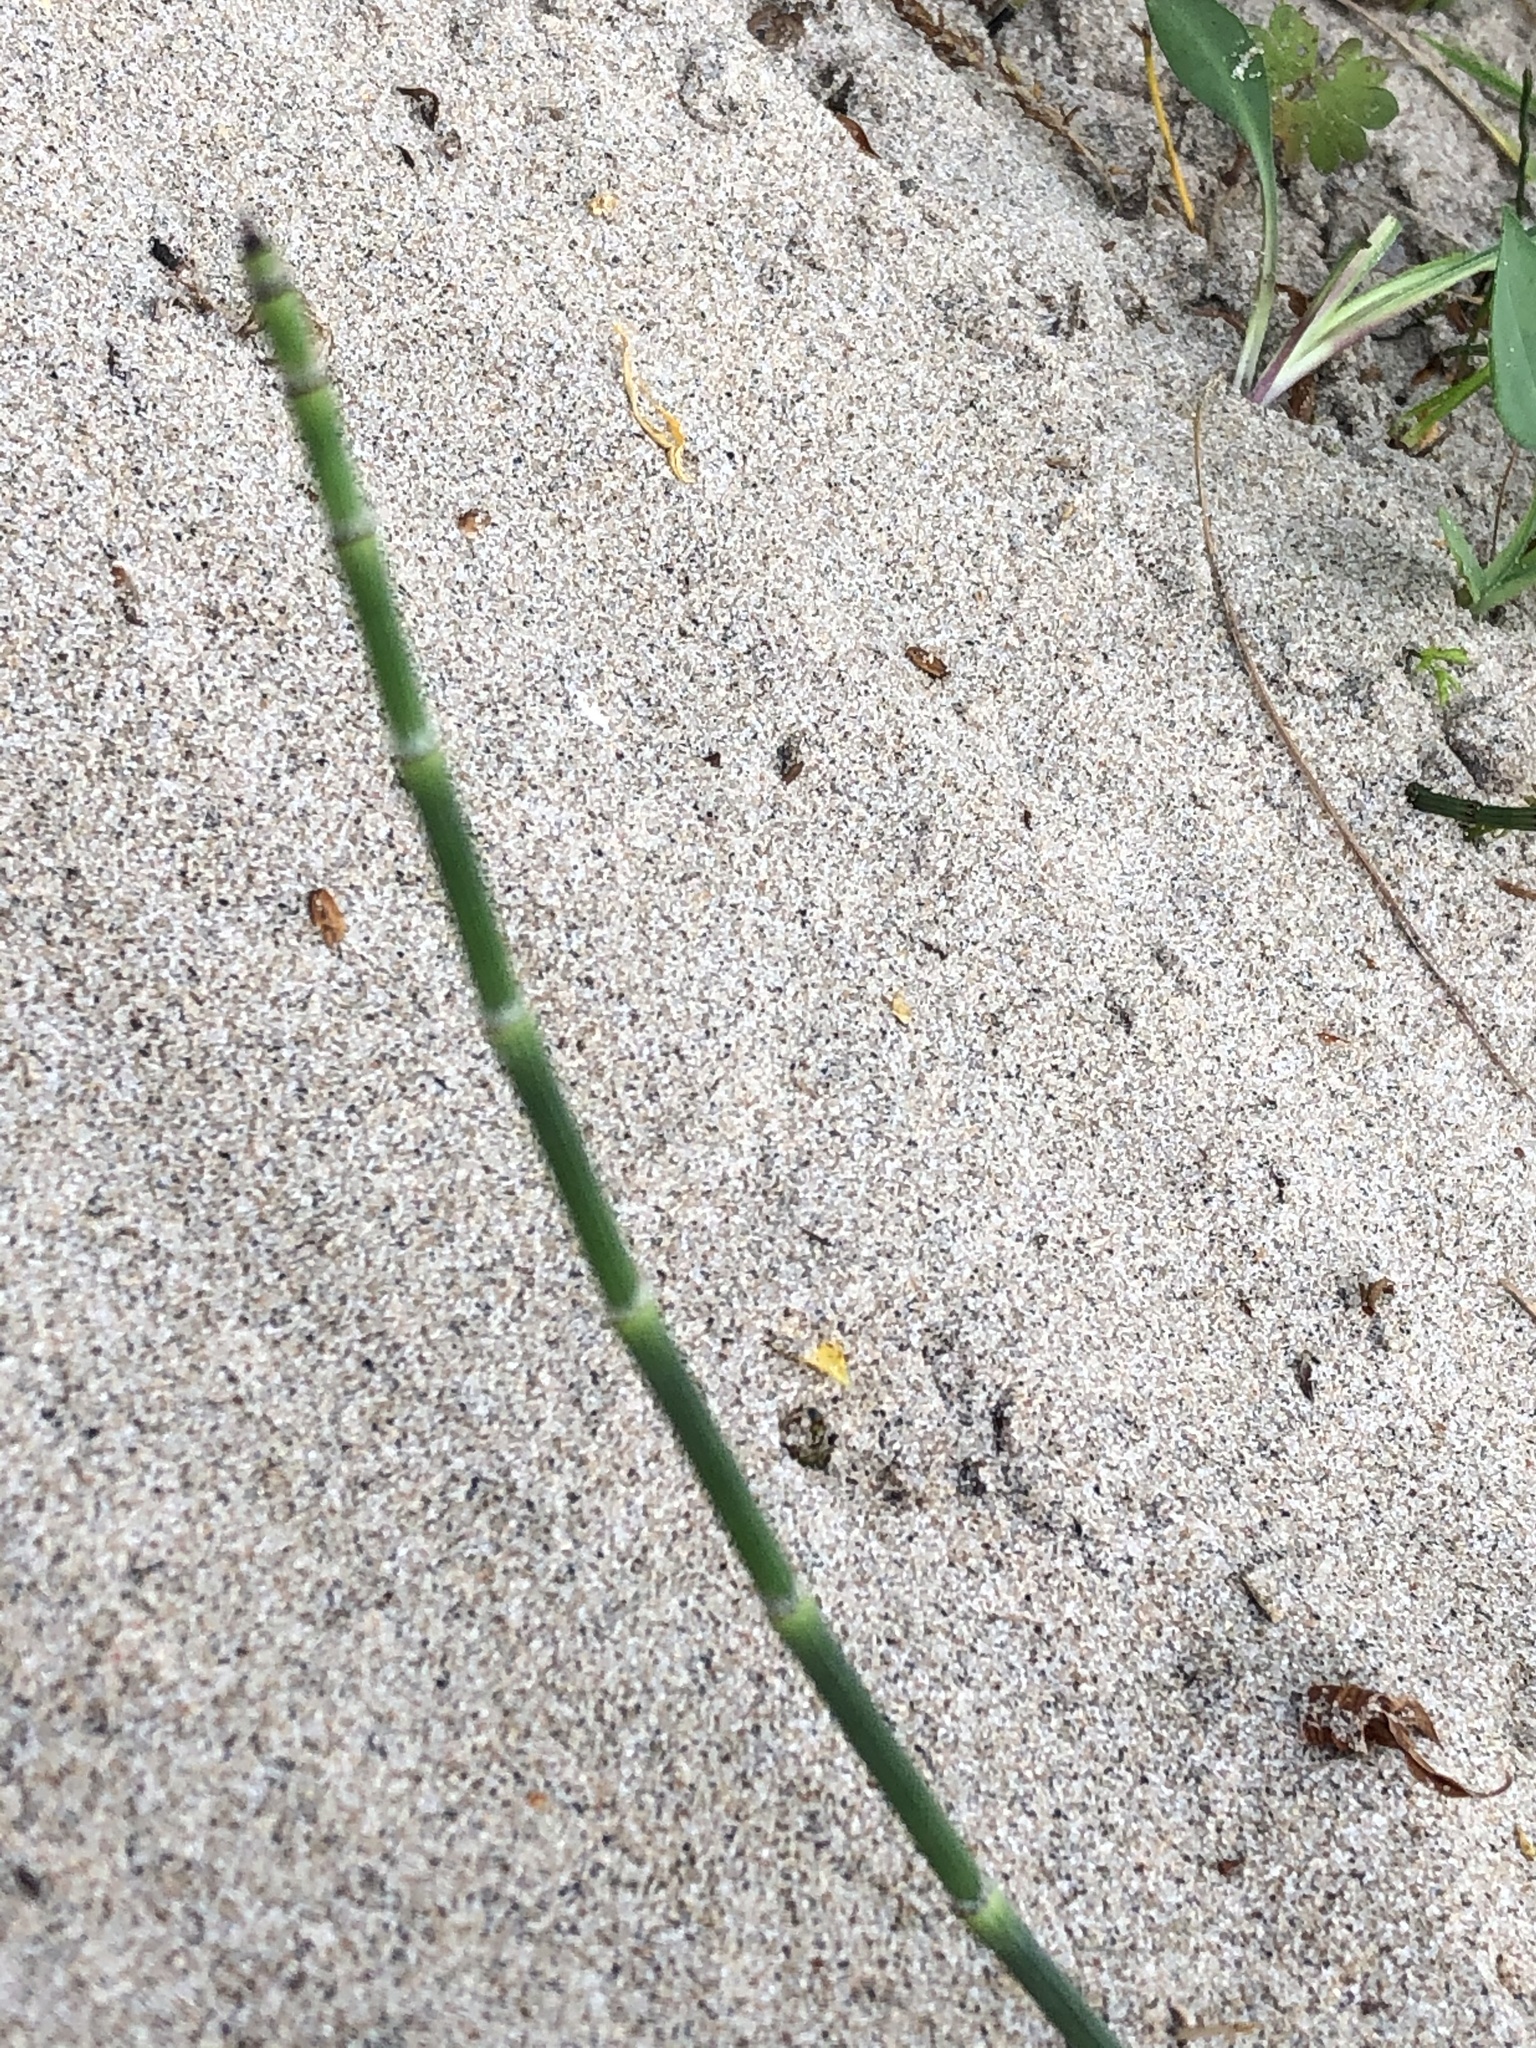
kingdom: Plantae
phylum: Tracheophyta
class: Polypodiopsida
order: Equisetales
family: Equisetaceae
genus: Equisetum
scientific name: Equisetum hyemale
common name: Rough horsetail
